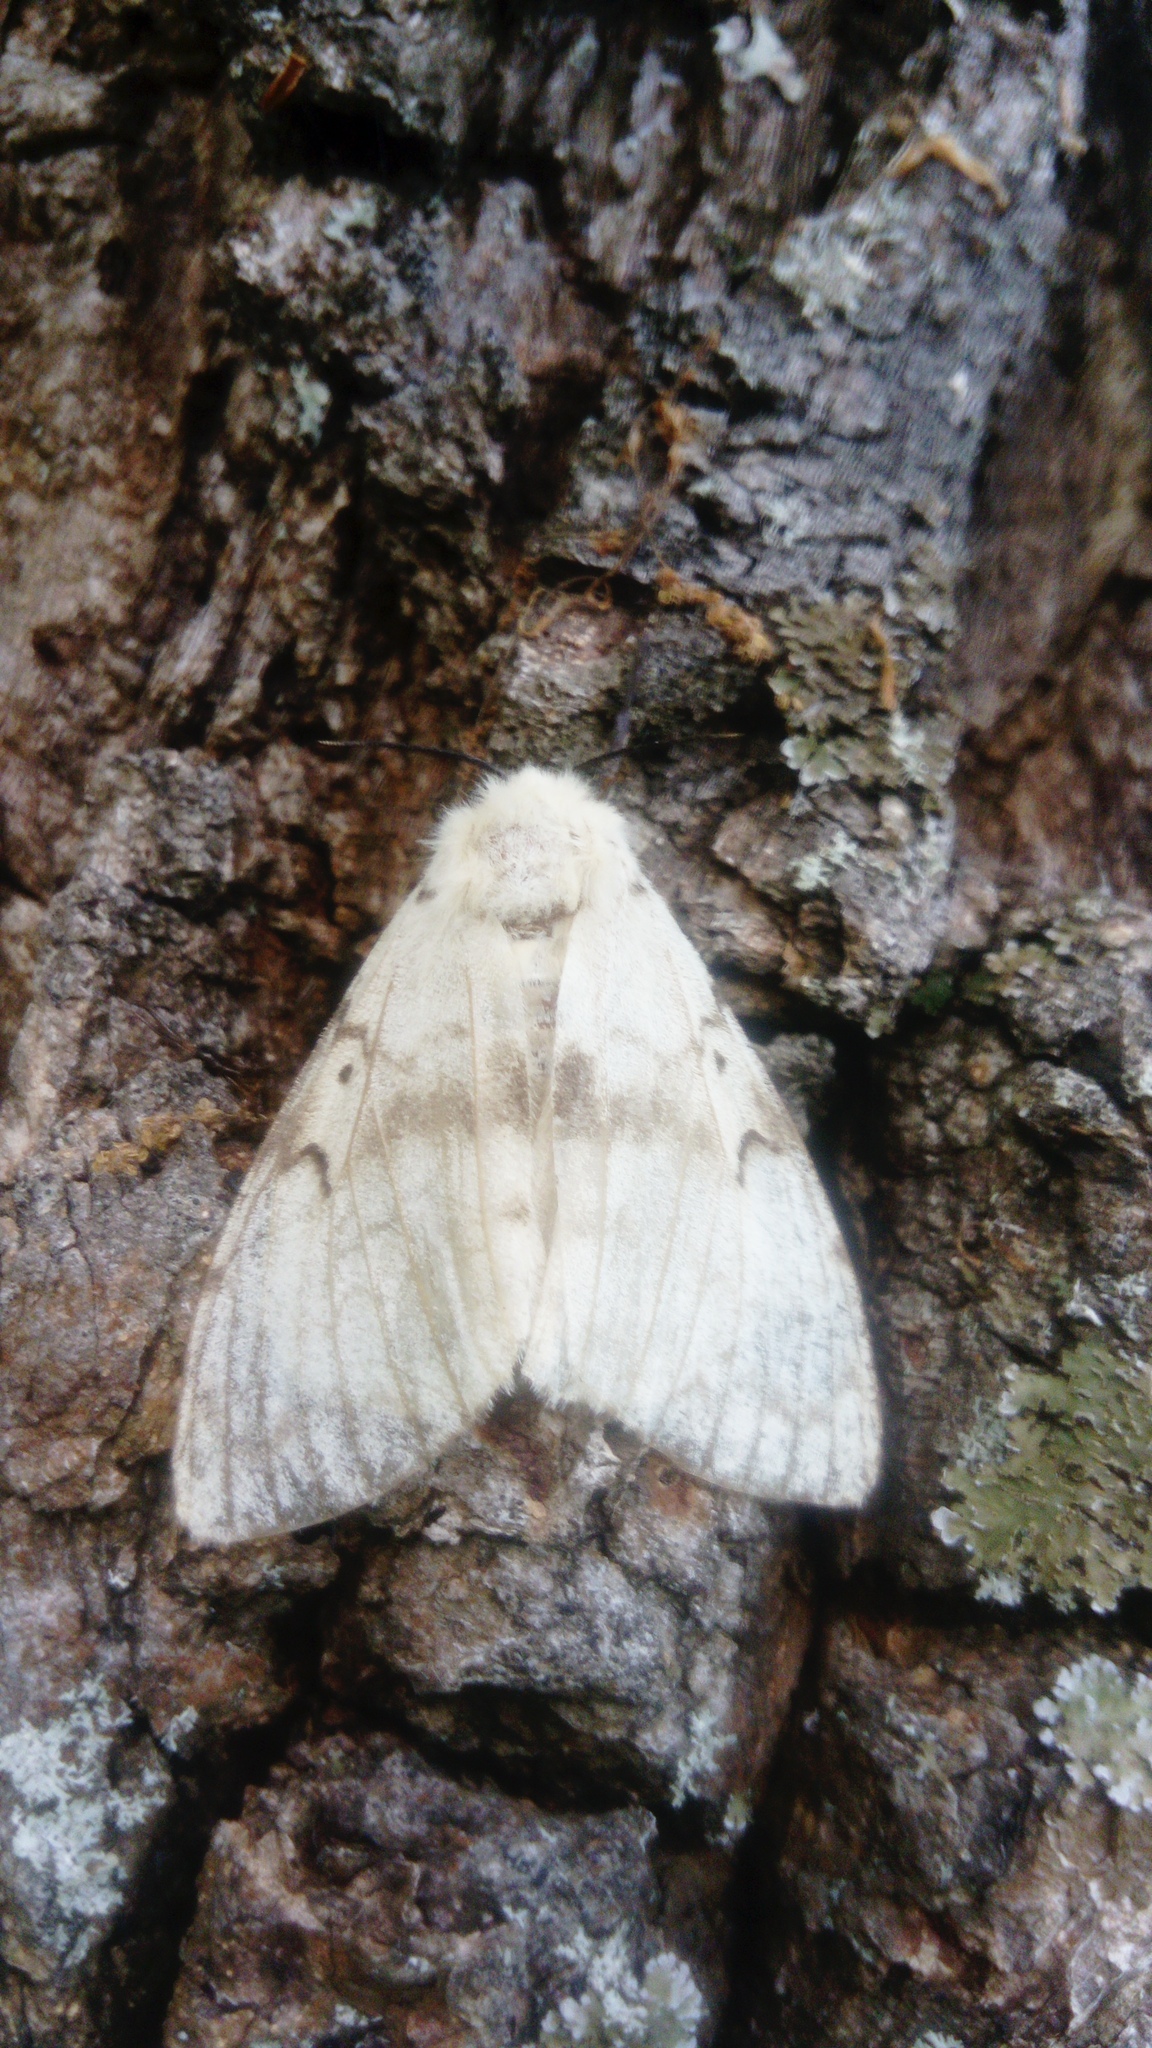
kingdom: Animalia
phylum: Arthropoda
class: Insecta
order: Lepidoptera
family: Erebidae
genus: Lymantria
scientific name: Lymantria dispar
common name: Gypsy moth
